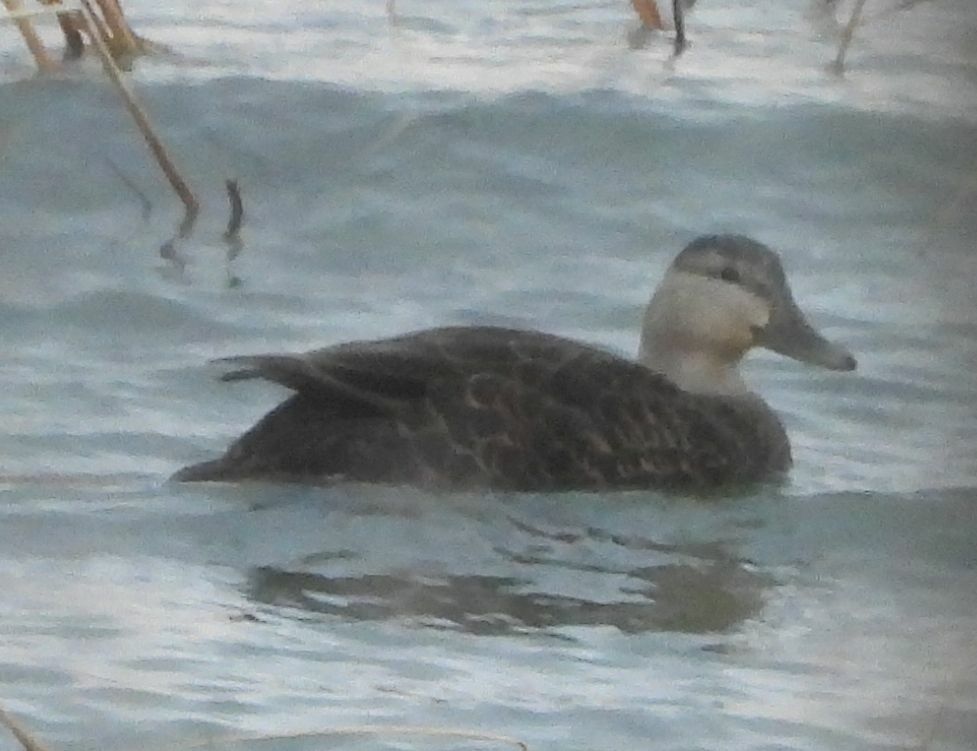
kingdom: Animalia
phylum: Chordata
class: Aves
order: Anseriformes
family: Anatidae
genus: Anas
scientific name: Anas rubripes
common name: American black duck
